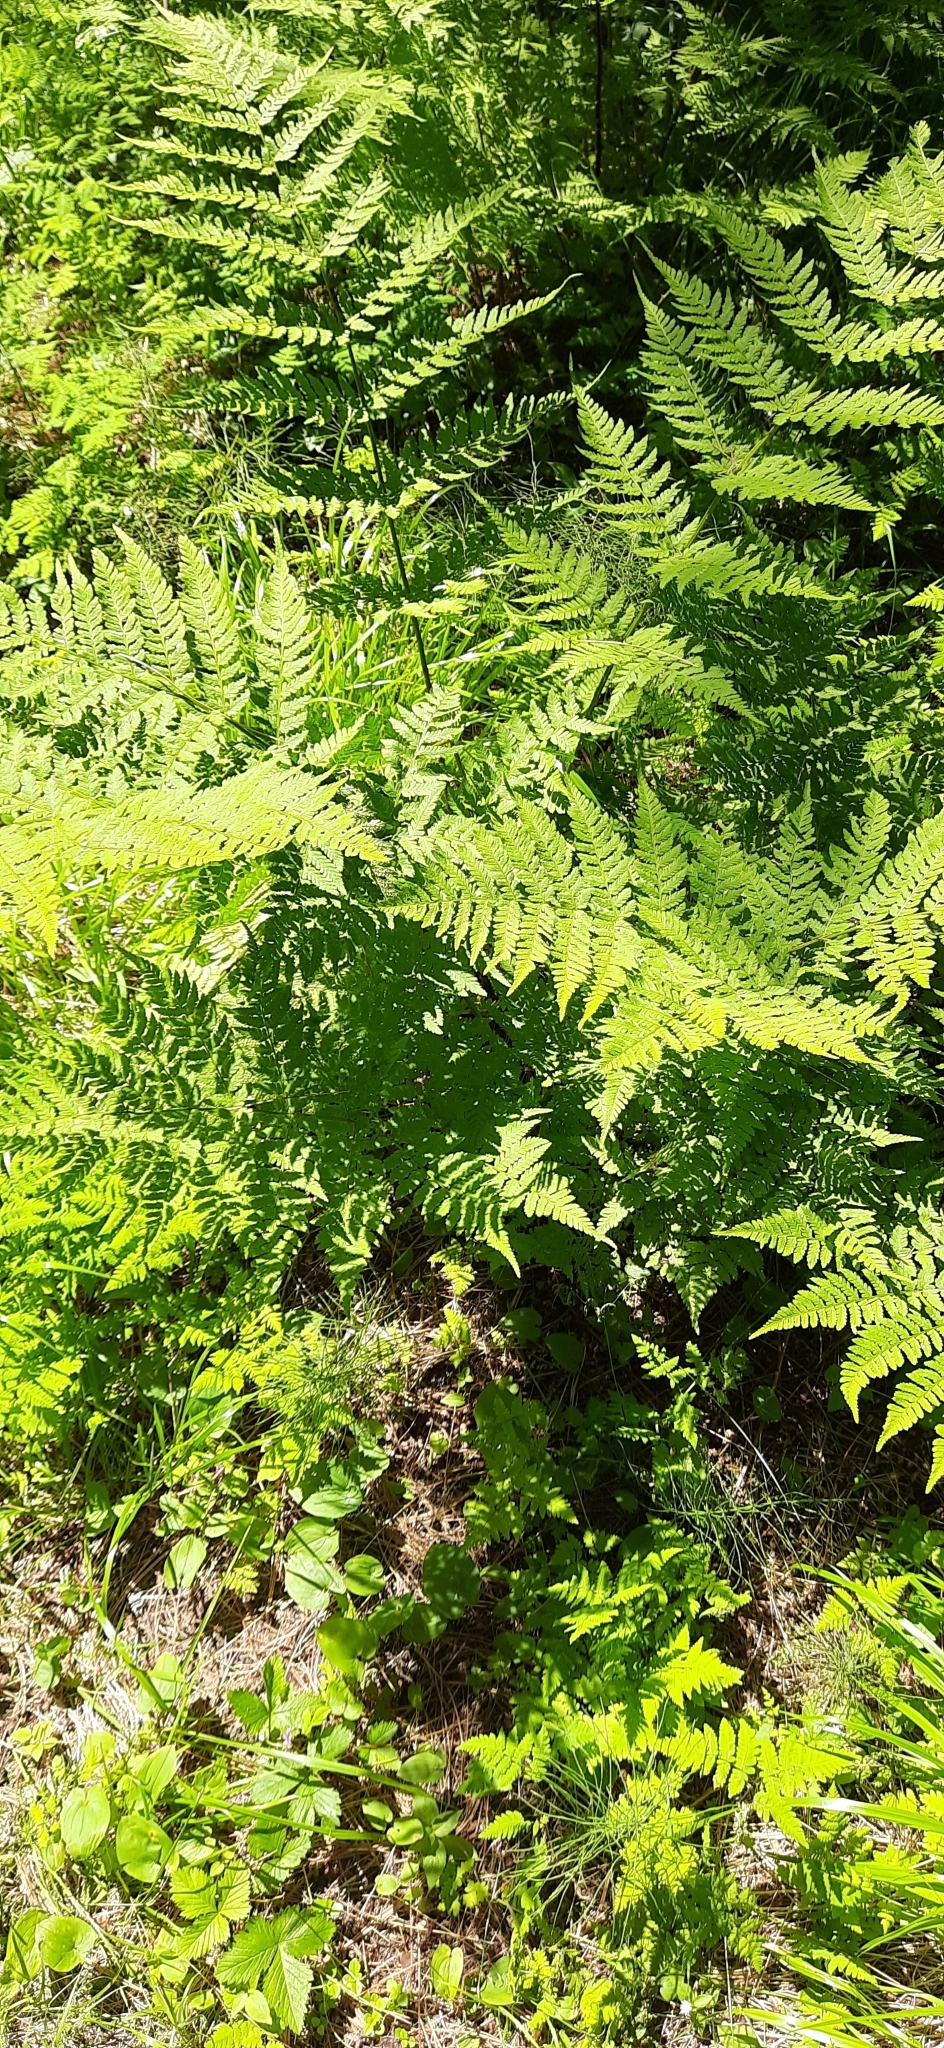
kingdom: Plantae
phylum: Tracheophyta
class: Polypodiopsida
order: Polypodiales
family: Dryopteridaceae
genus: Dryopteris
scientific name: Dryopteris expansa
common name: Northern buckler fern
